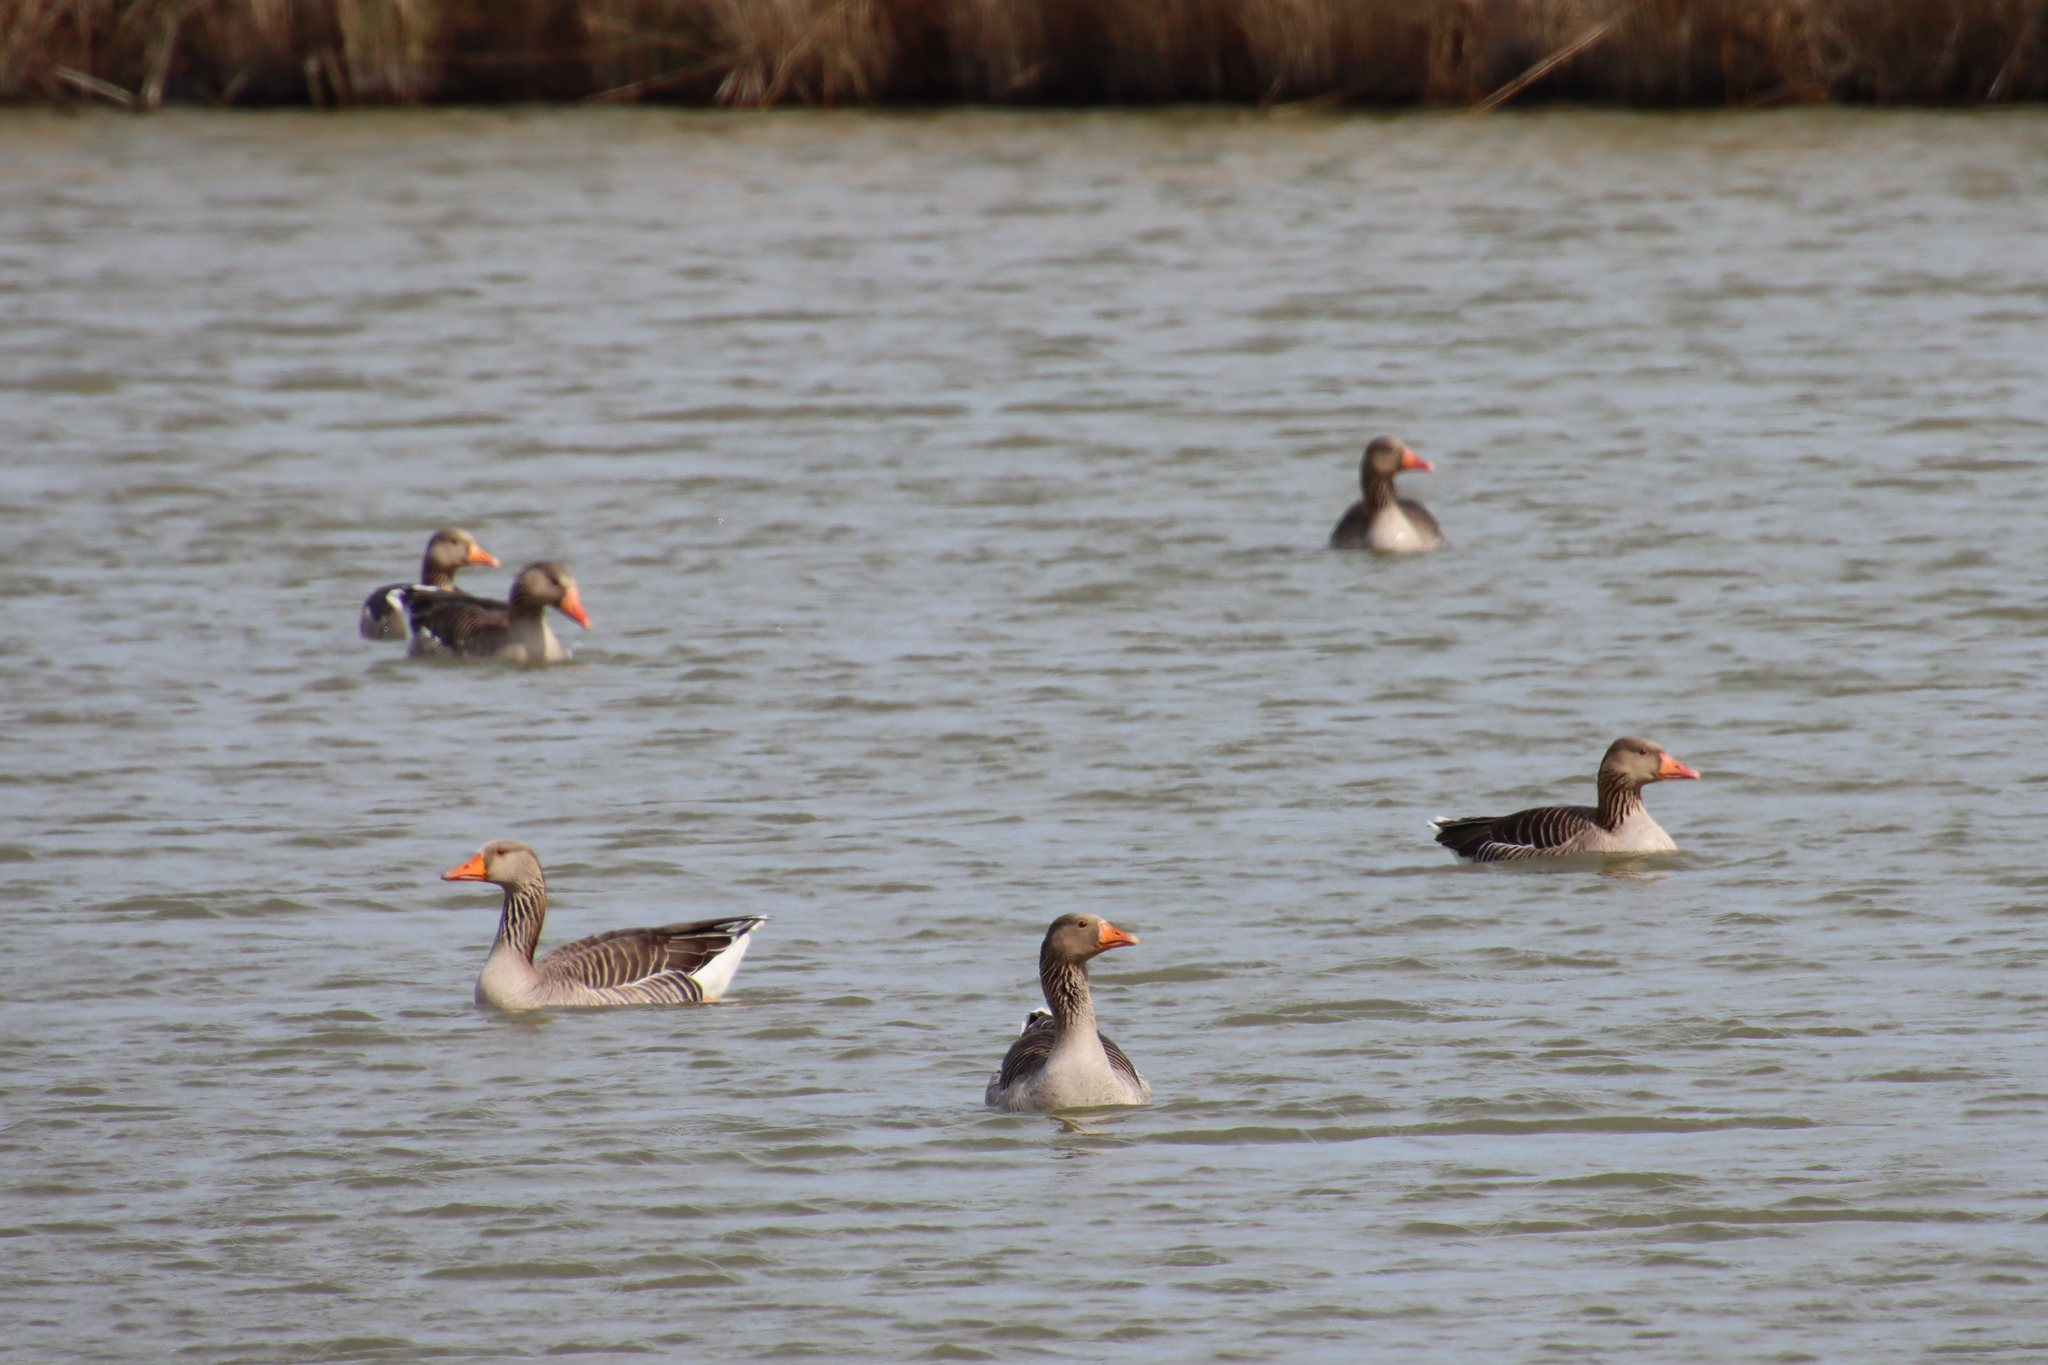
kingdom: Animalia
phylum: Chordata
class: Aves
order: Anseriformes
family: Anatidae
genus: Anser
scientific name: Anser anser
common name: Greylag goose
